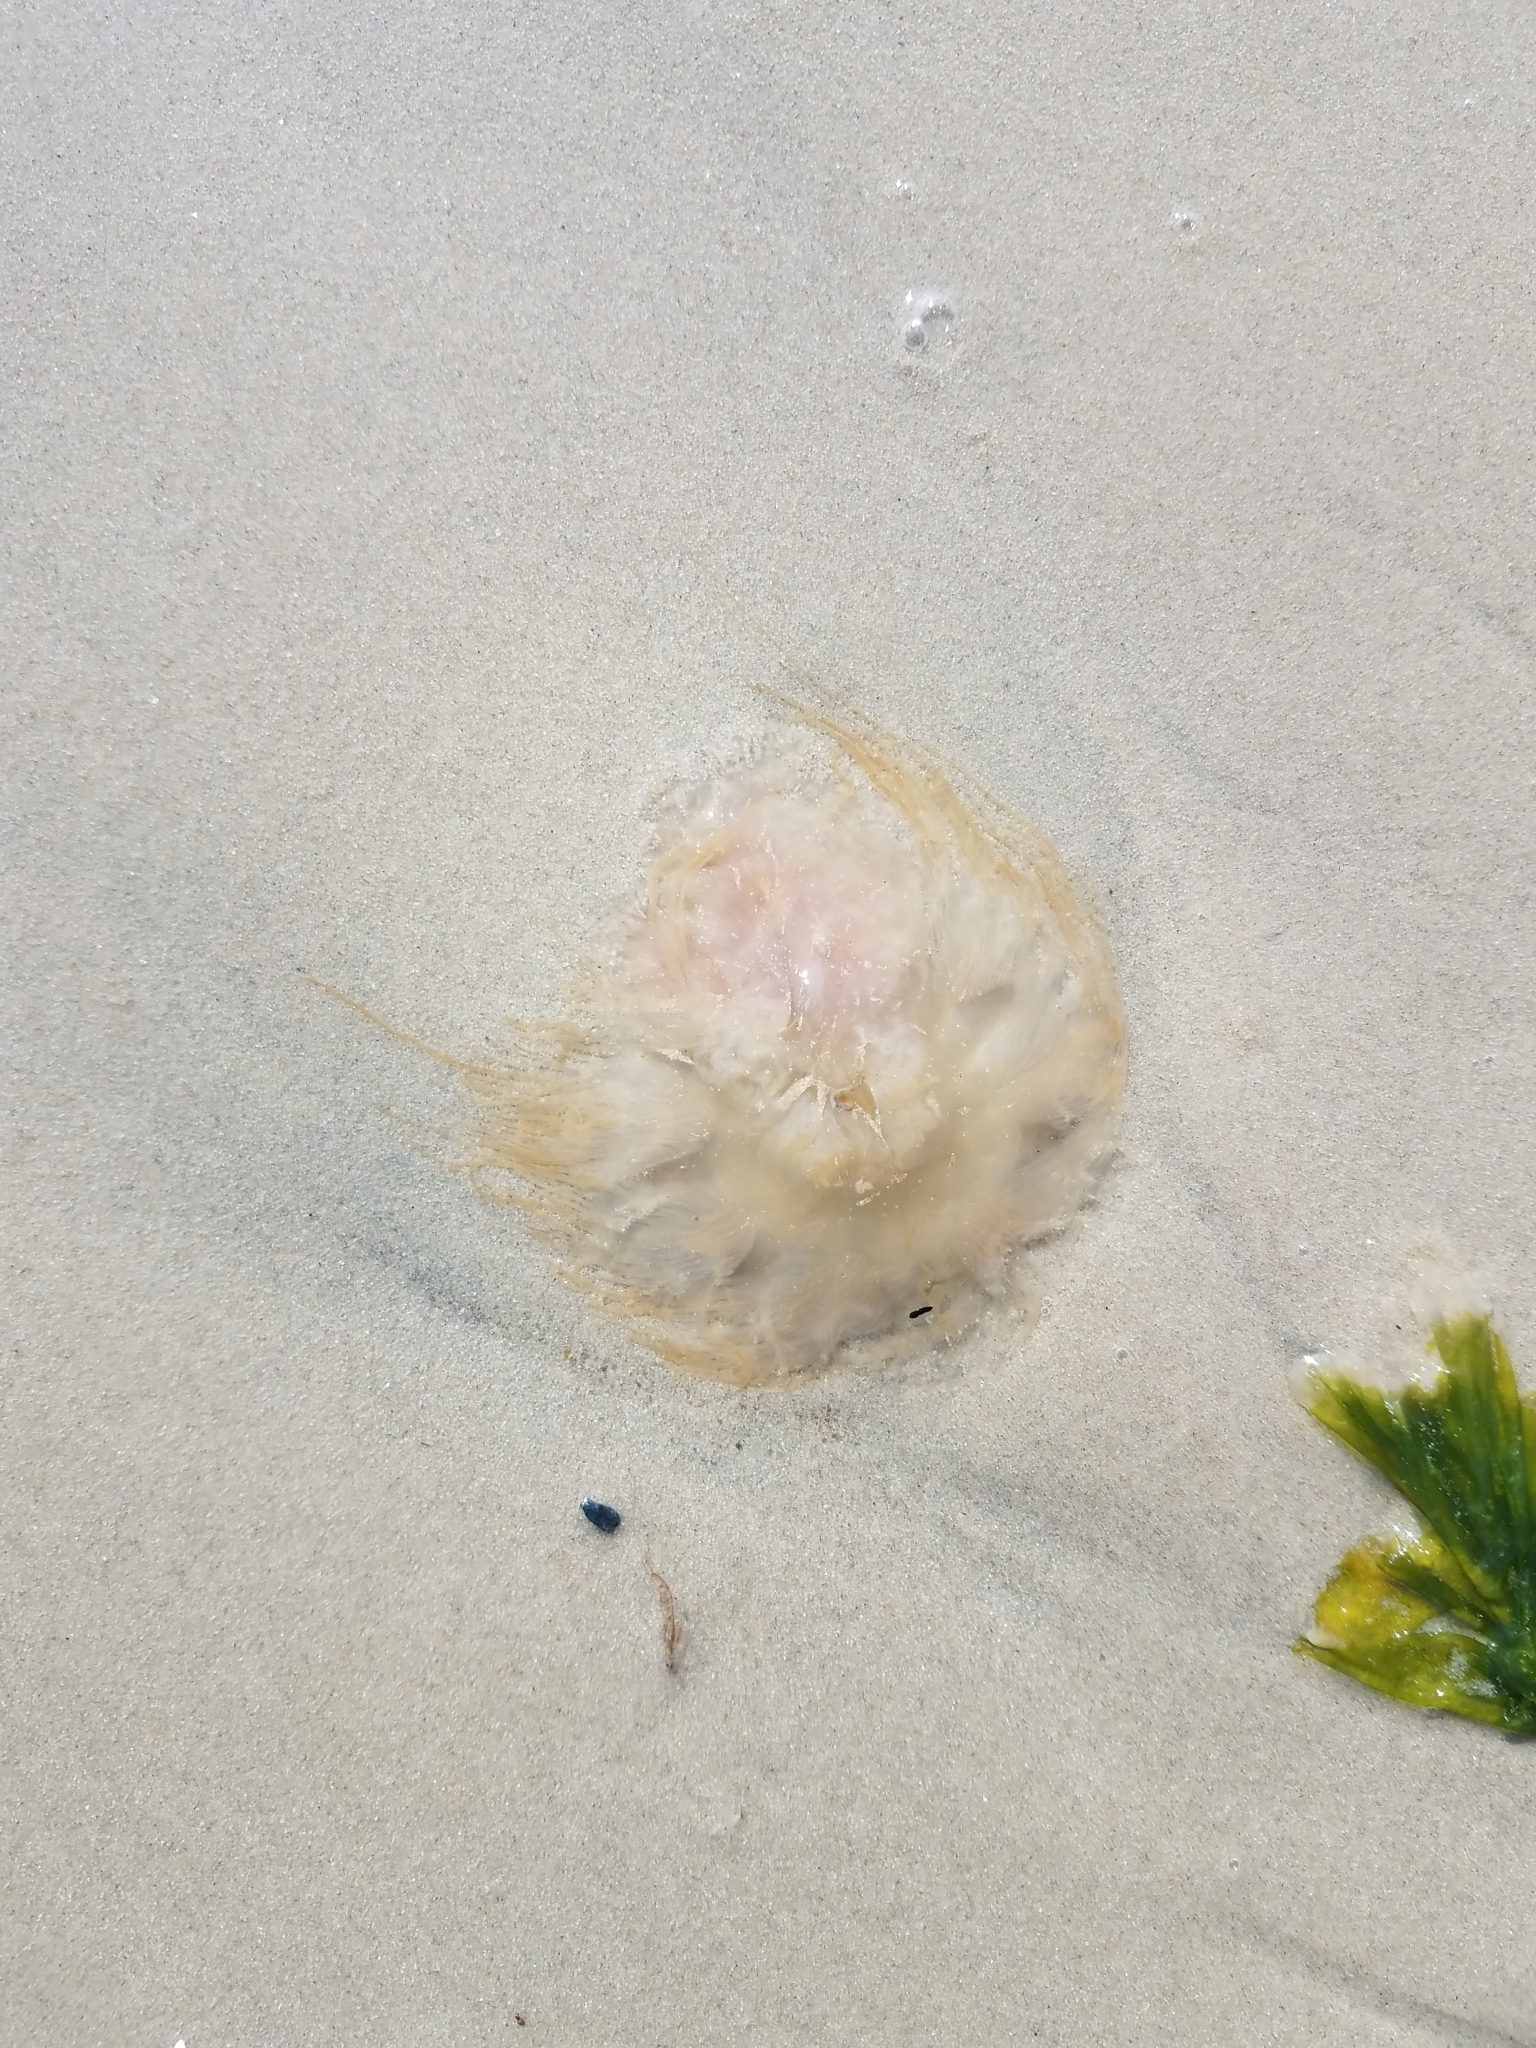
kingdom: Animalia
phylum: Cnidaria
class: Scyphozoa
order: Semaeostomeae
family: Cyaneidae
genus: Cyanea
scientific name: Cyanea fulva
